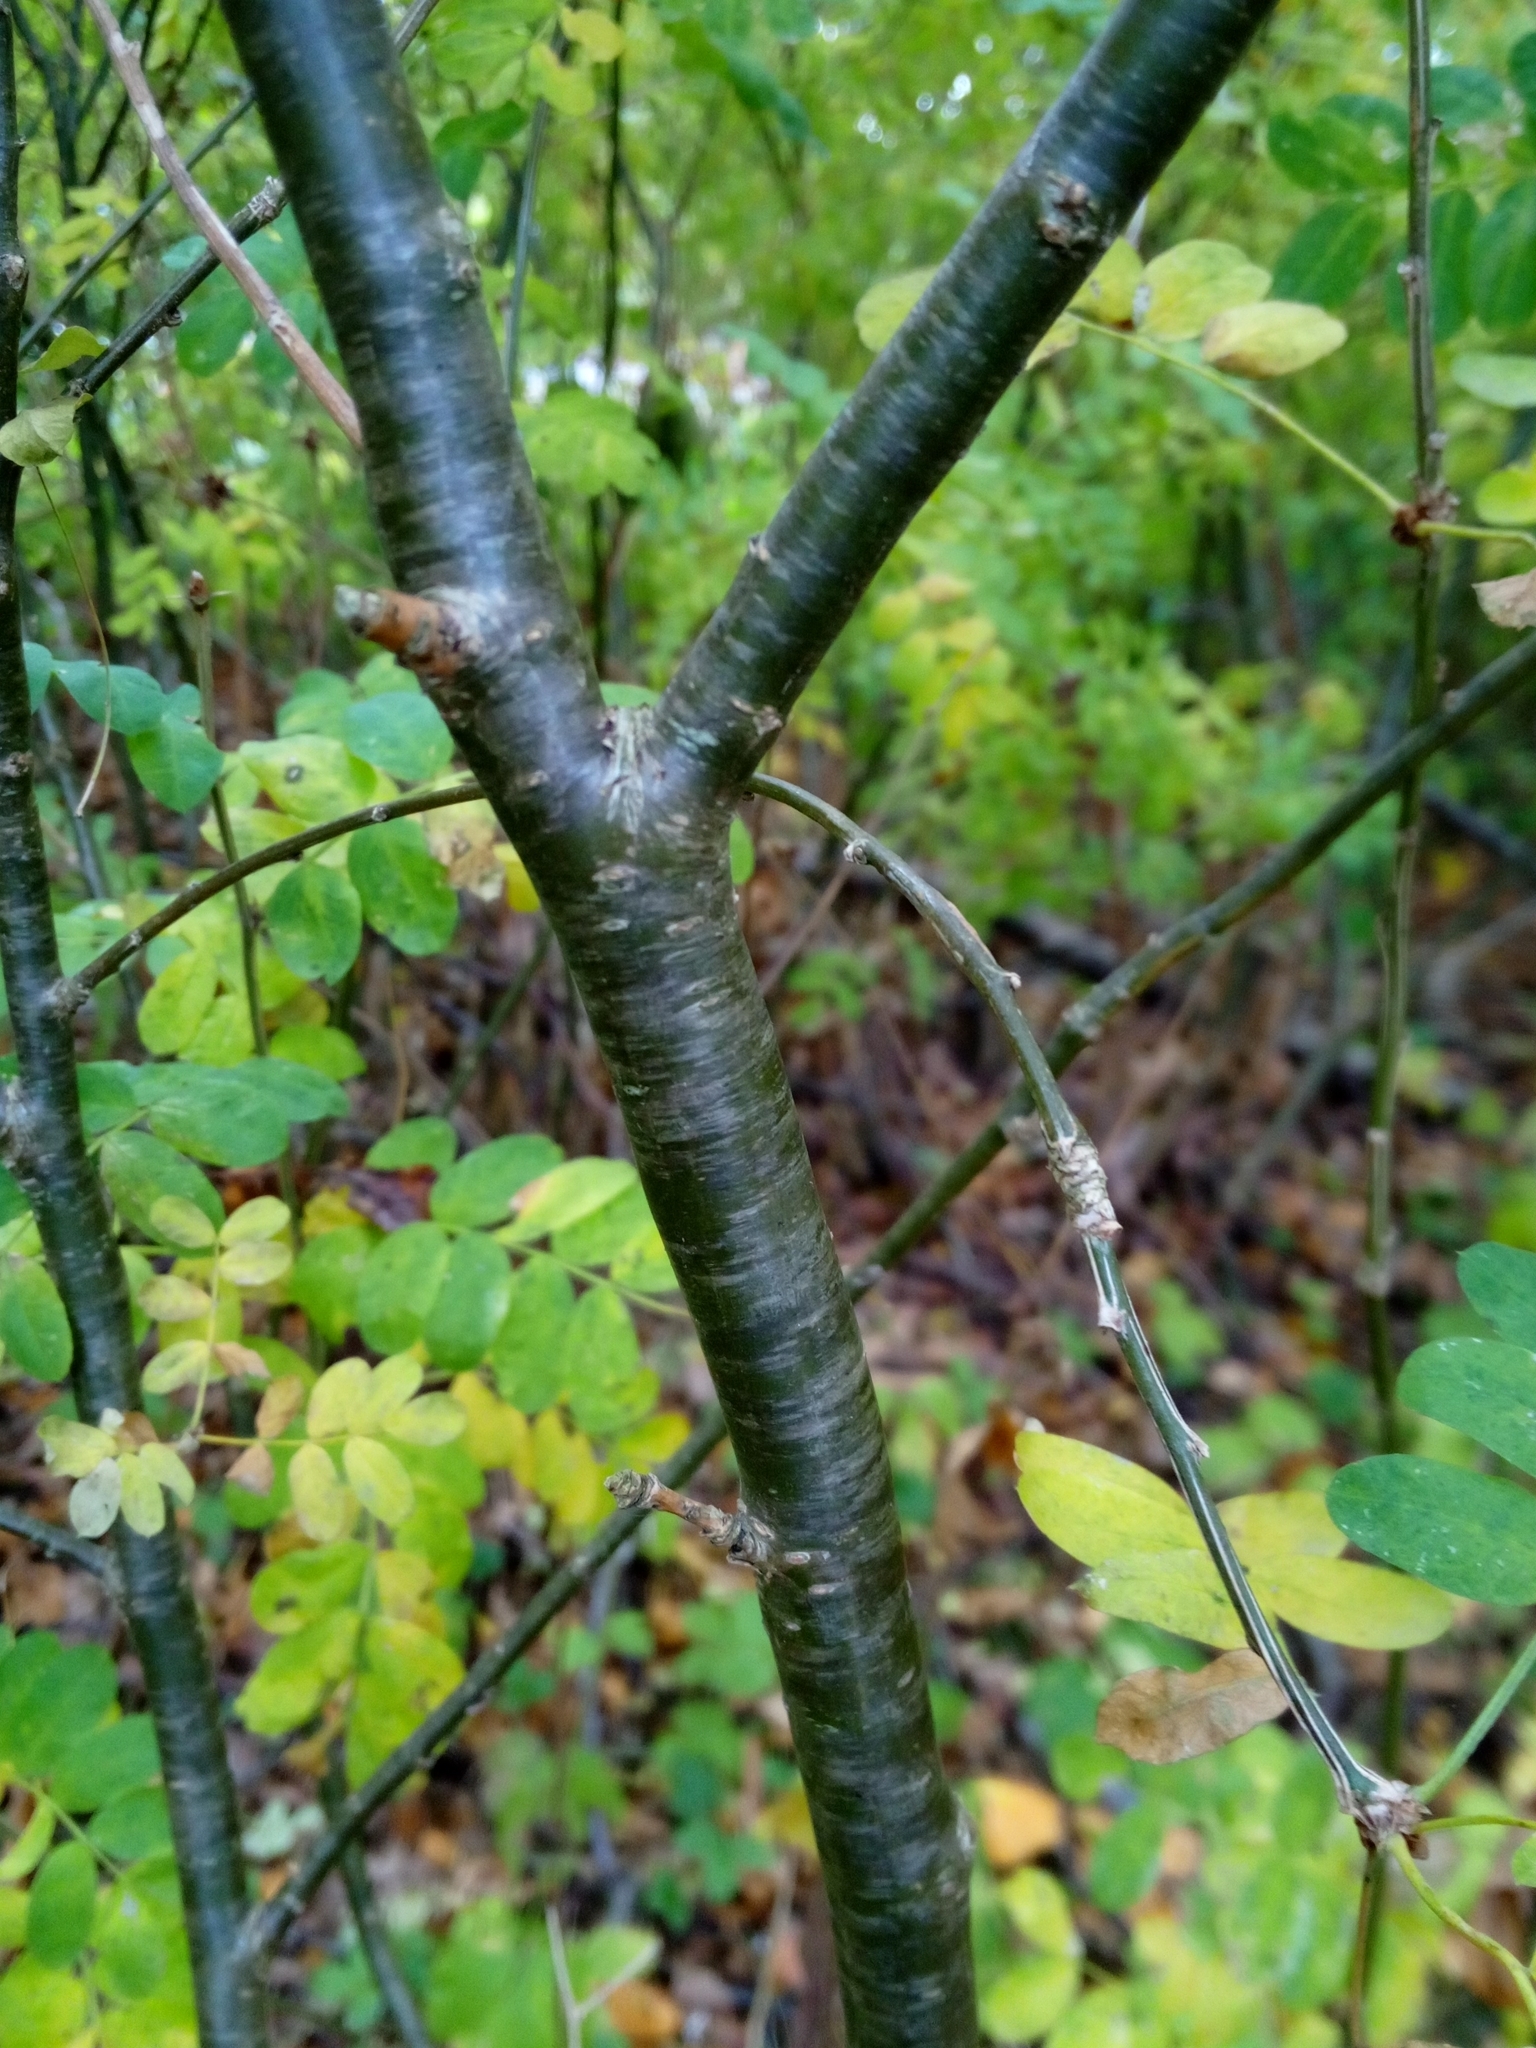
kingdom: Plantae
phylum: Tracheophyta
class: Magnoliopsida
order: Fabales
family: Fabaceae
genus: Robinia
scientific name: Robinia pseudoacacia
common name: Black locust
